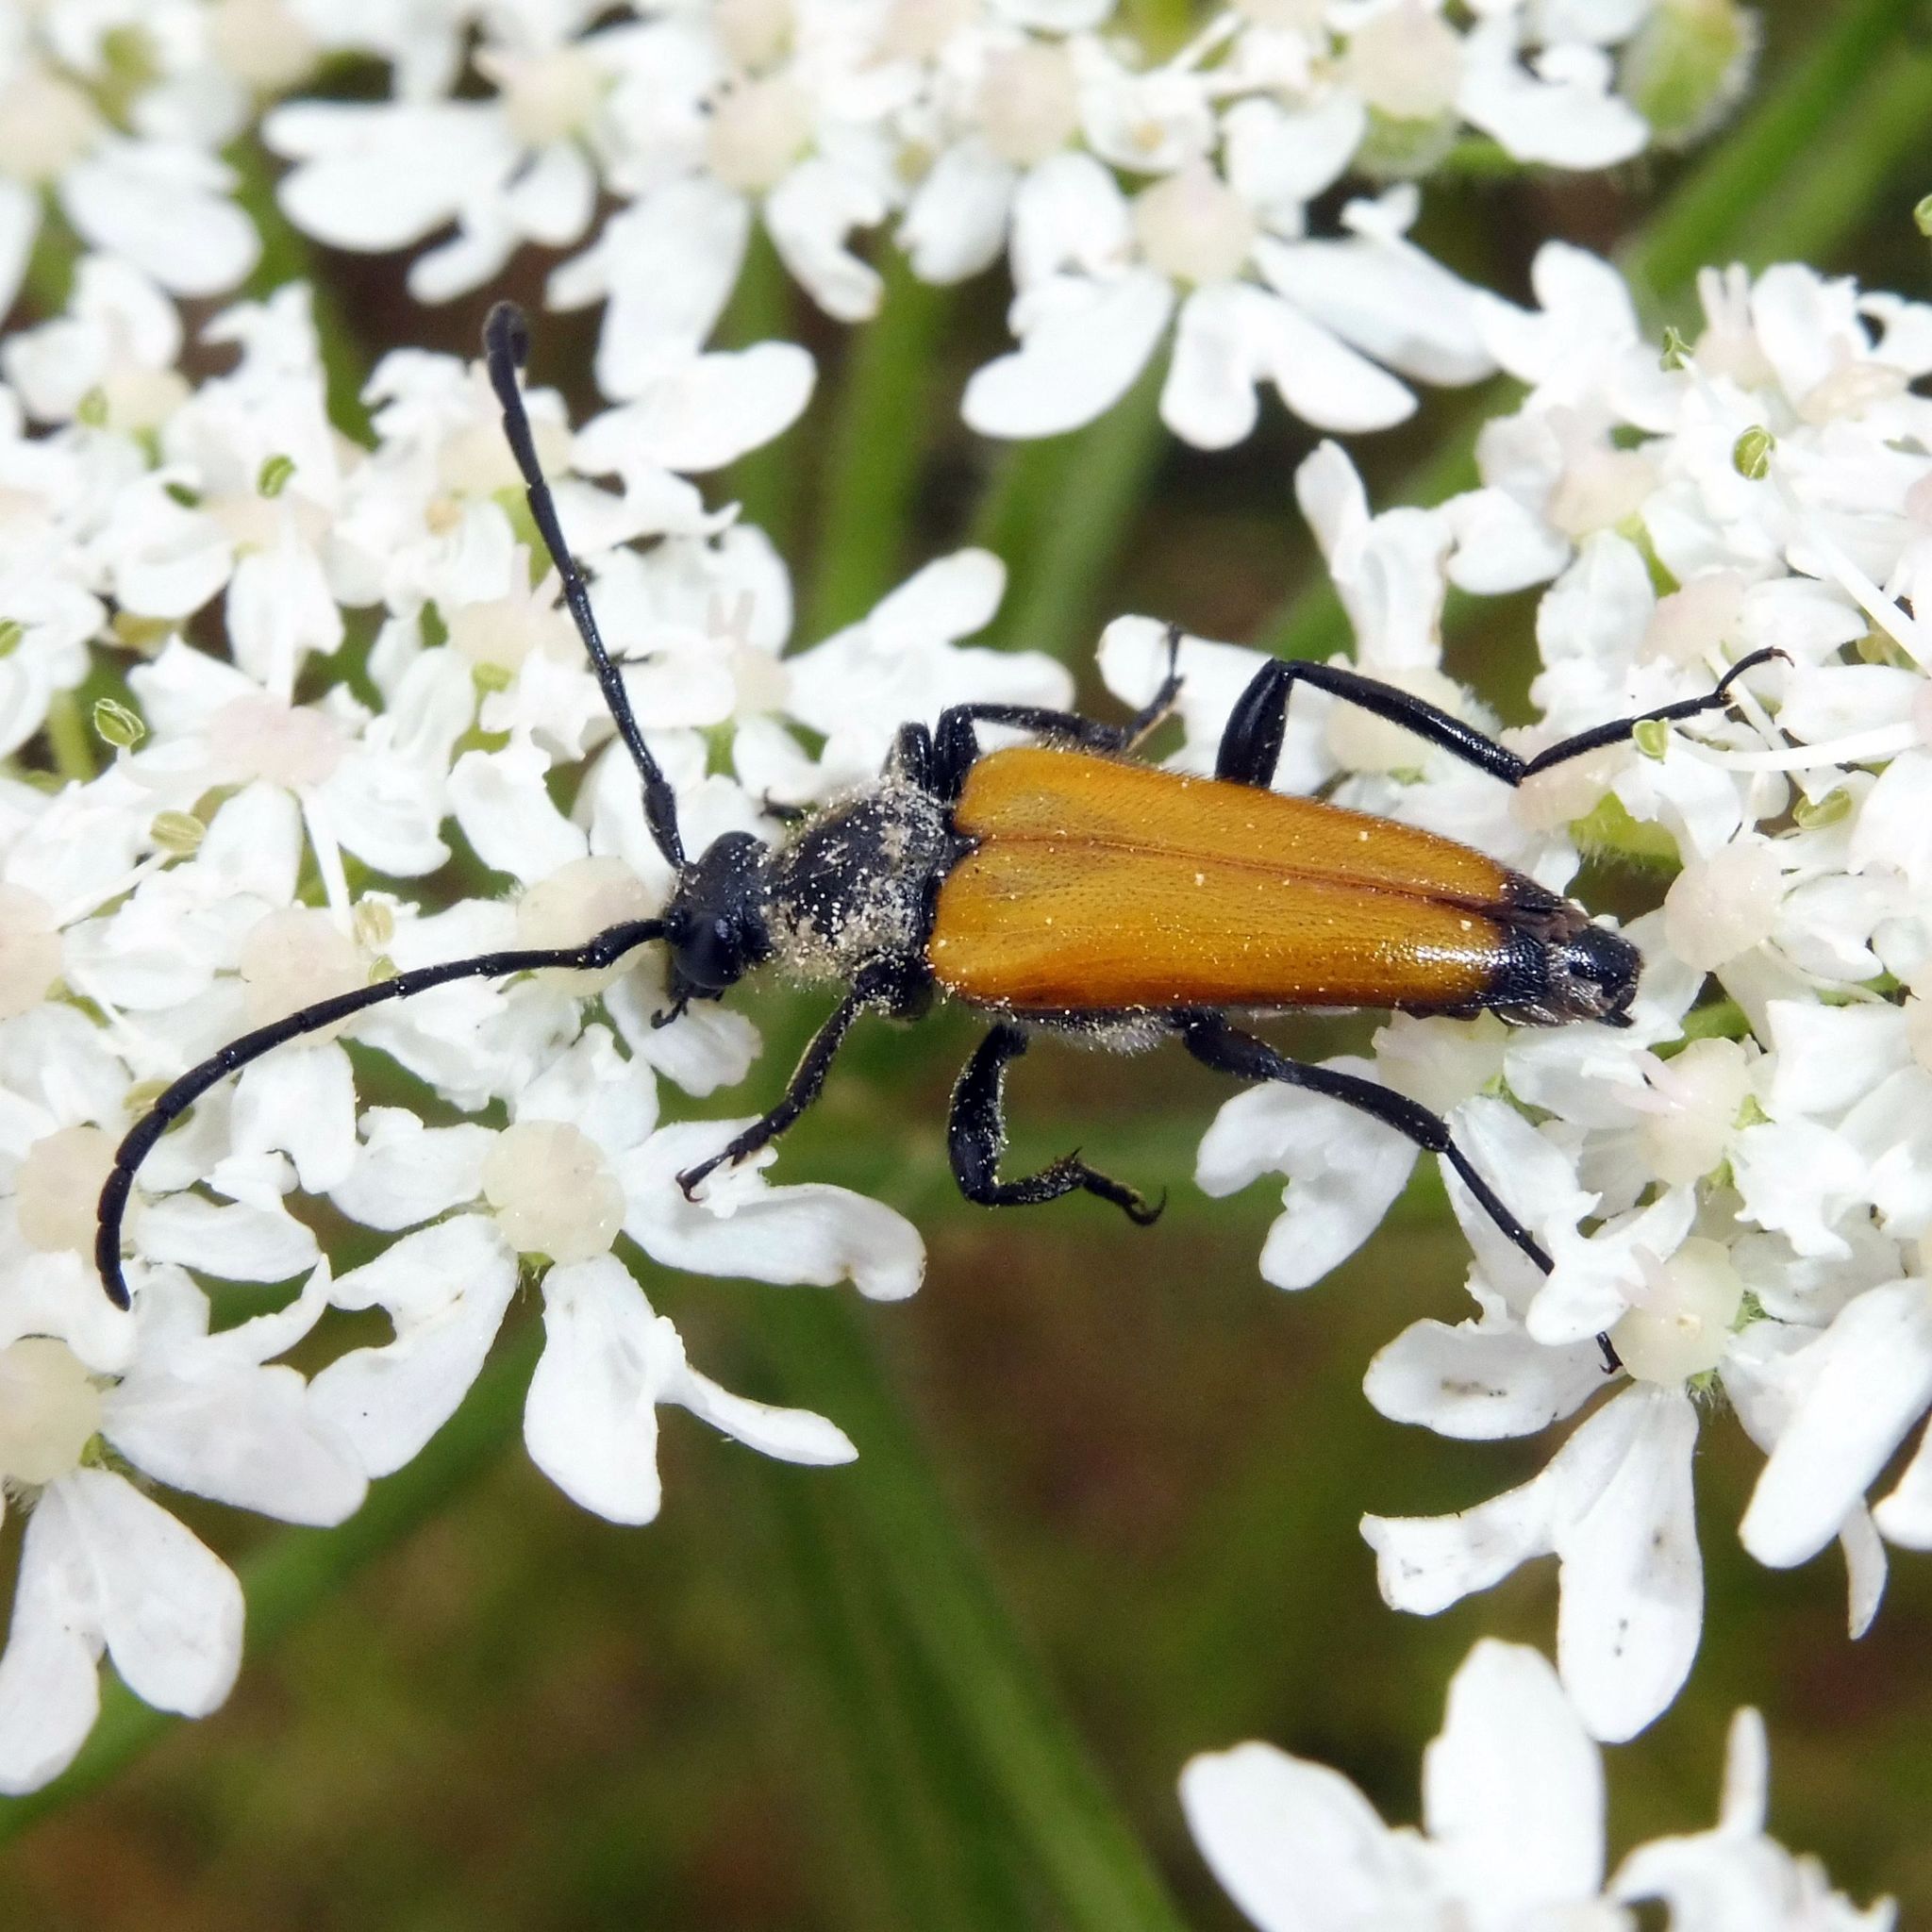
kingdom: Animalia
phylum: Arthropoda
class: Insecta
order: Coleoptera
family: Cerambycidae
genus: Paracorymbia
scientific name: Paracorymbia fulva
